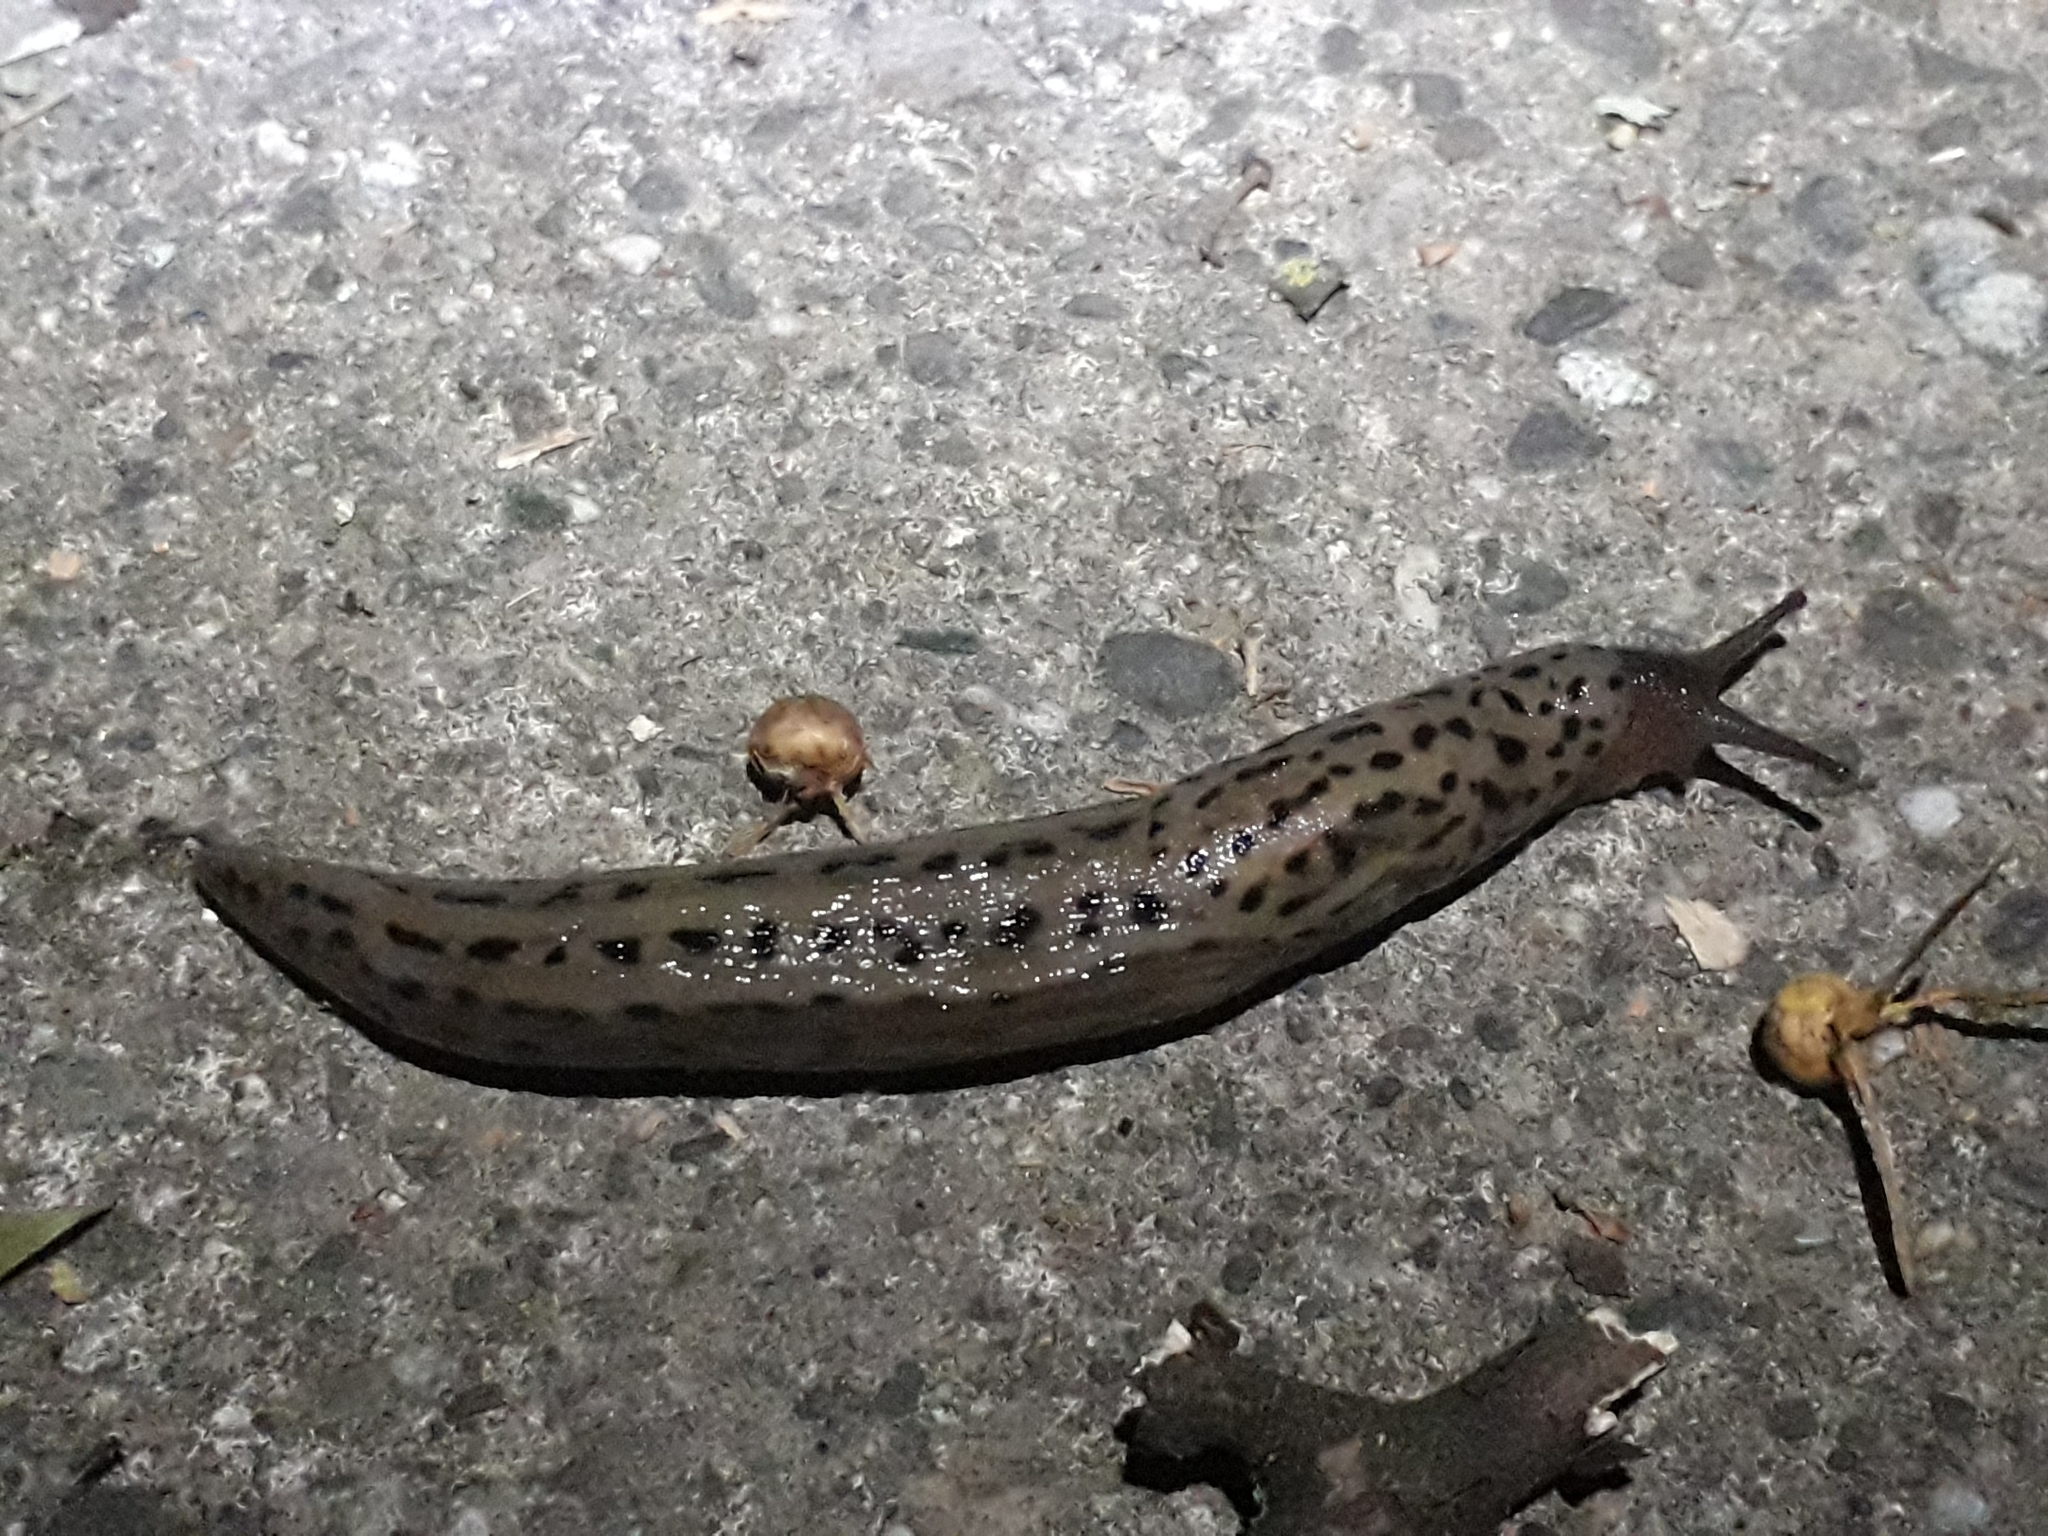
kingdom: Animalia
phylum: Mollusca
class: Gastropoda
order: Stylommatophora
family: Limacidae
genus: Limax
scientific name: Limax maximus
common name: Great grey slug
